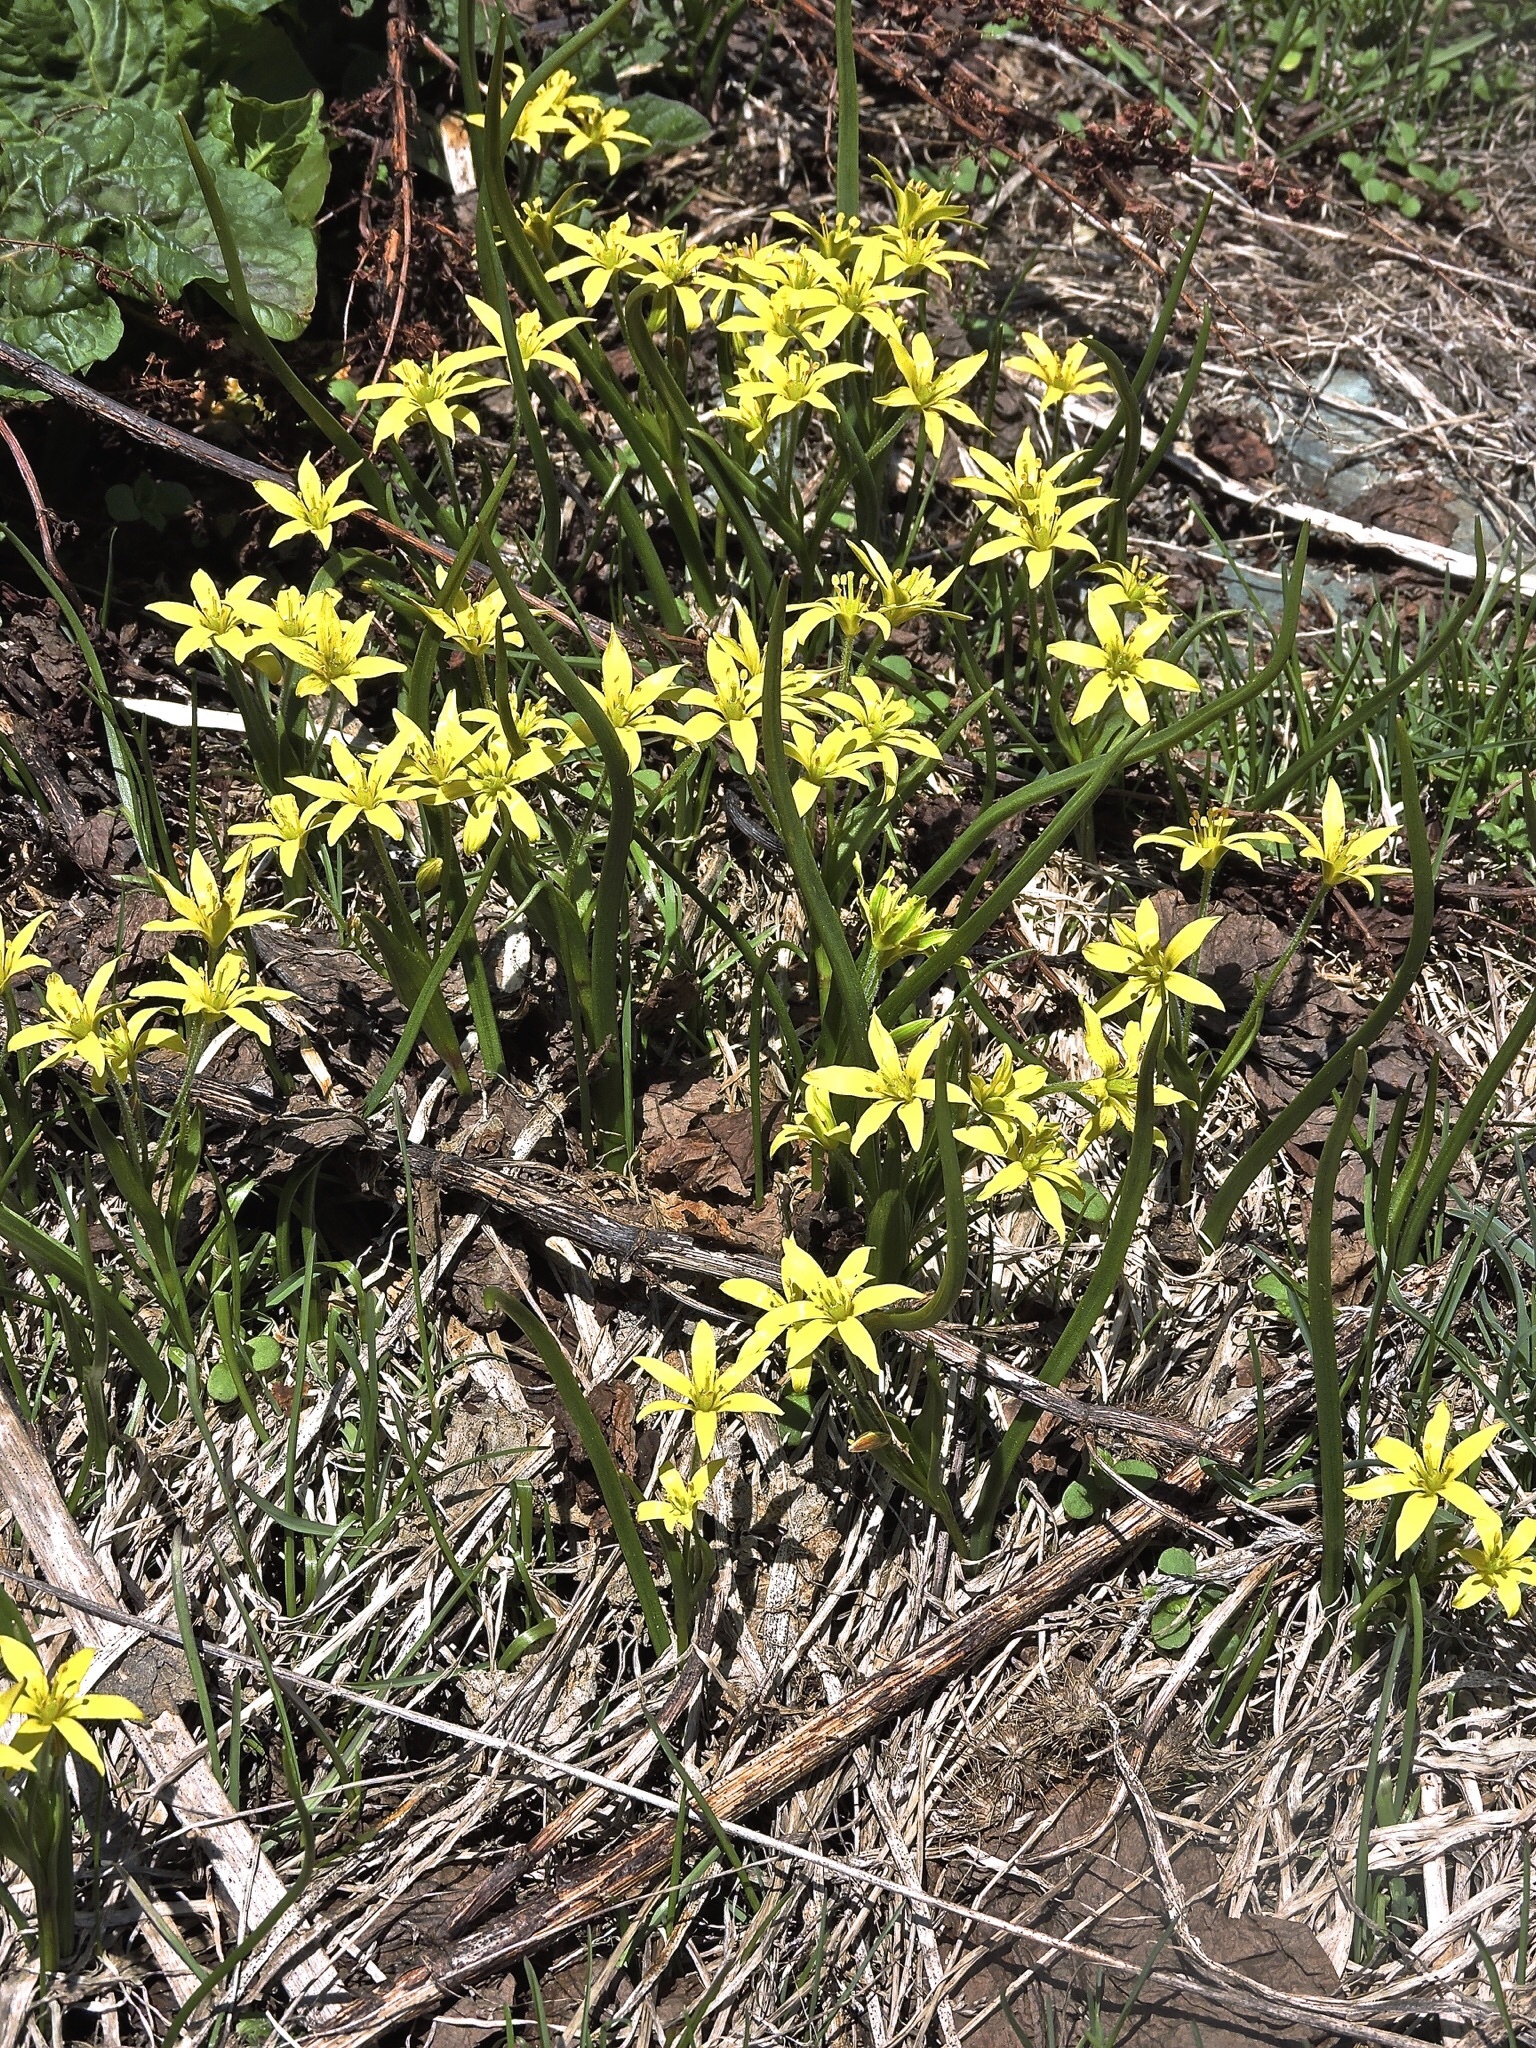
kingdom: Plantae
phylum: Tracheophyta
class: Liliopsida
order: Liliales
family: Liliaceae
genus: Gagea
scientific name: Gagea fragifera
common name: Lily
